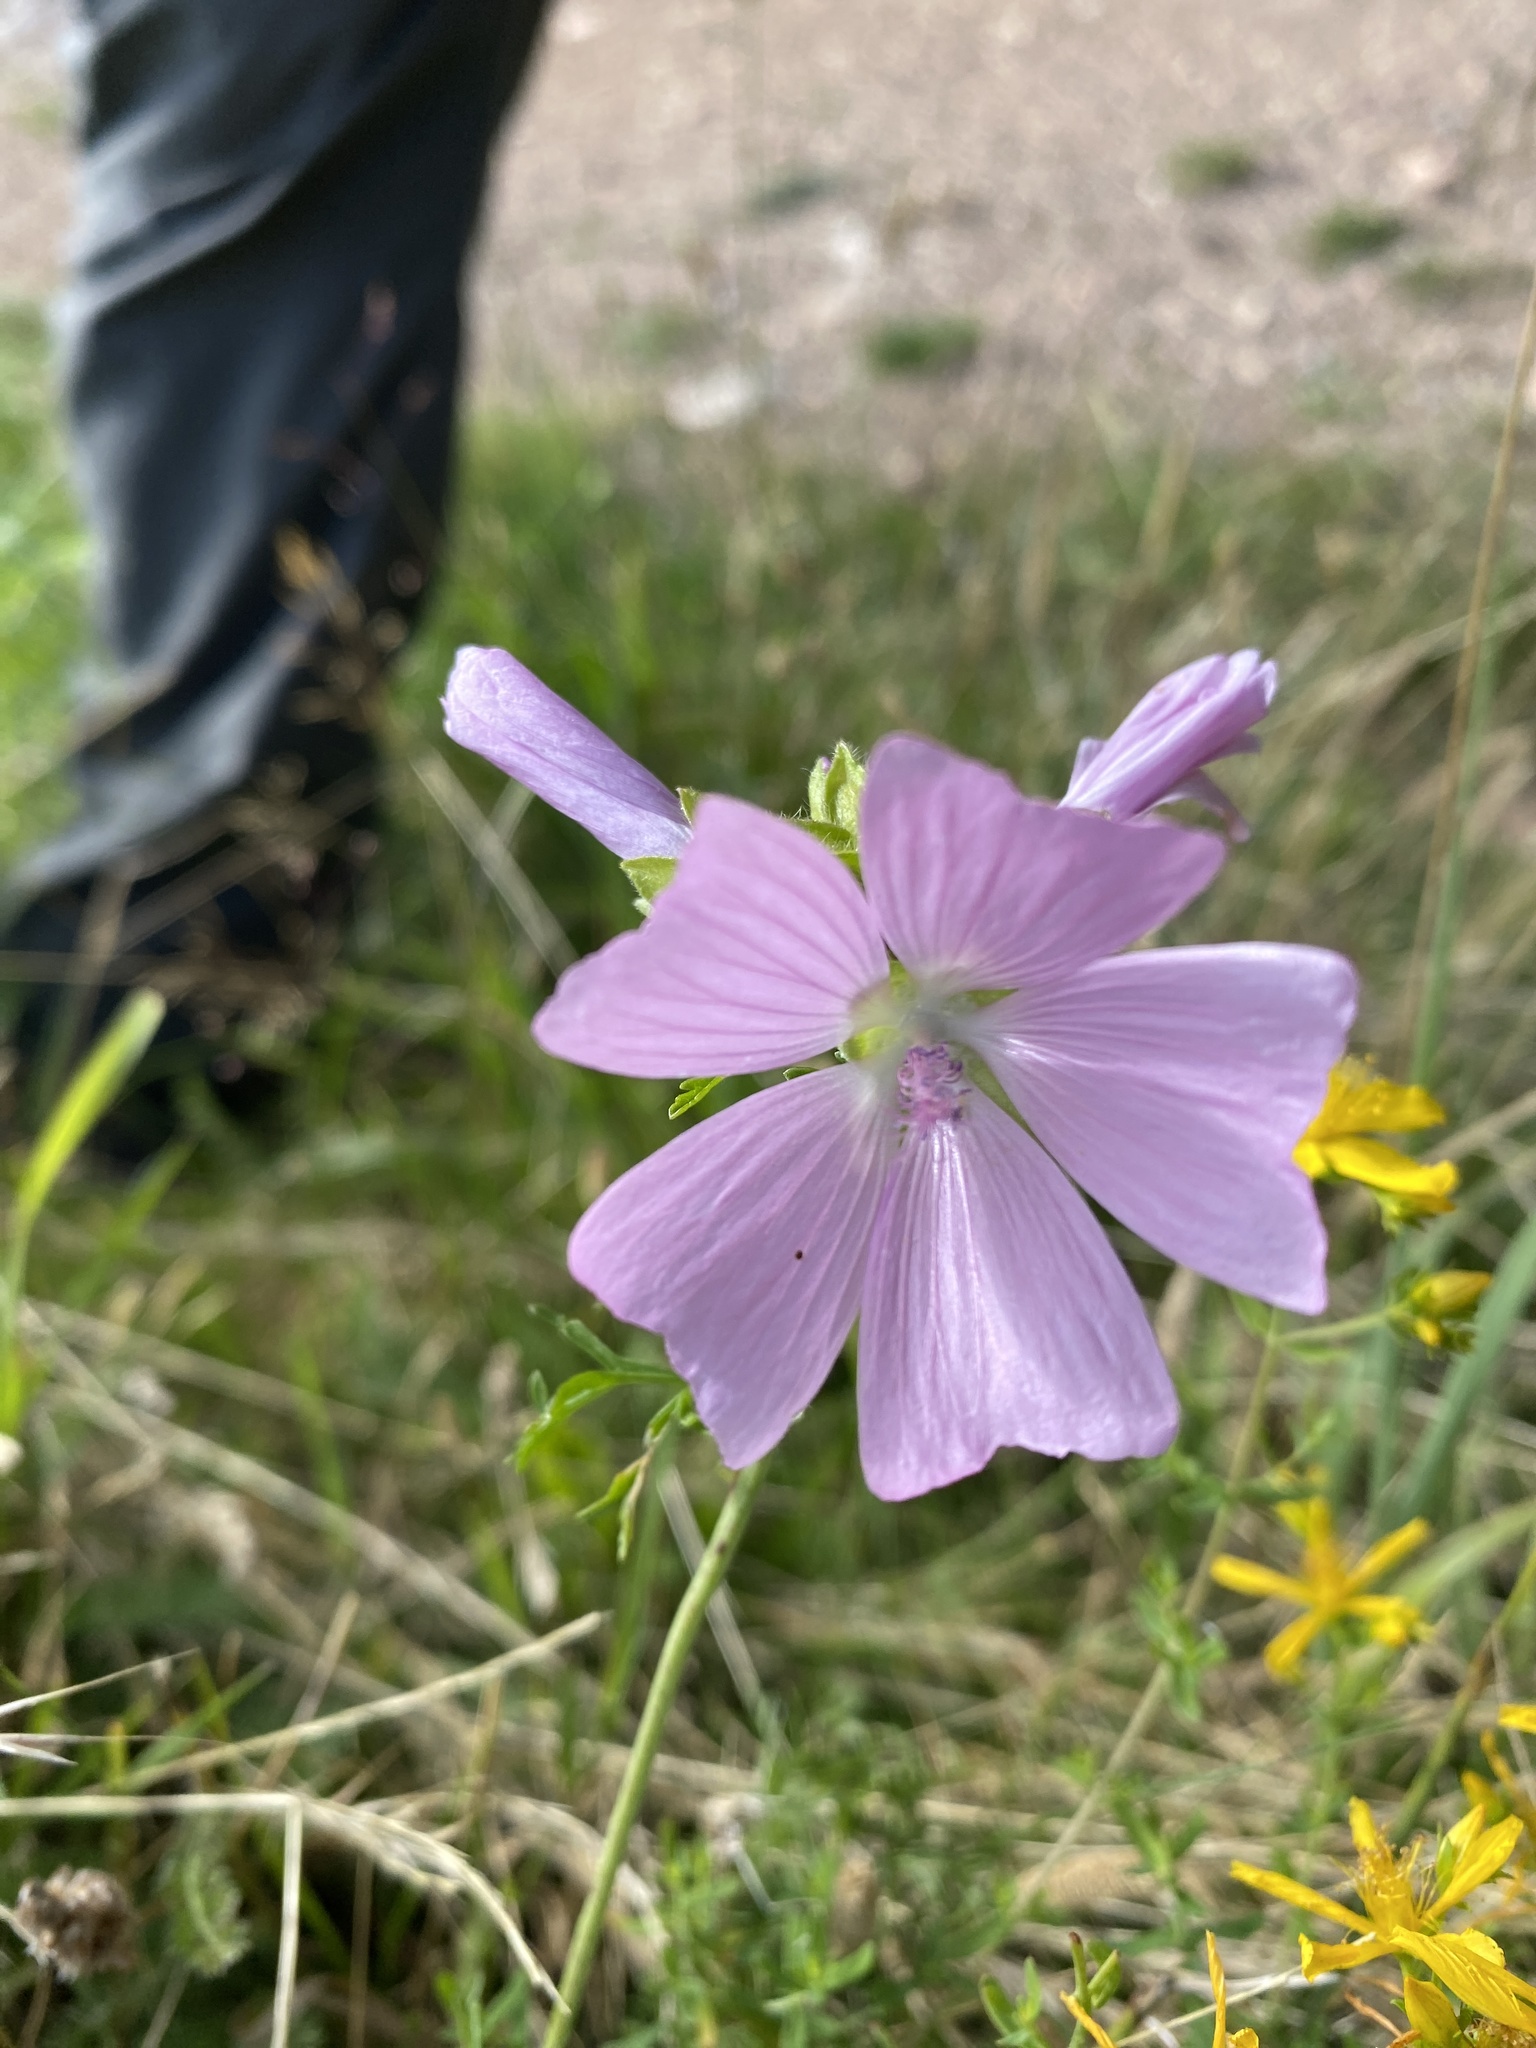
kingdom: Plantae
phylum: Tracheophyta
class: Magnoliopsida
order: Malvales
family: Malvaceae
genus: Malva
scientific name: Malva moschata
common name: Musk mallow
